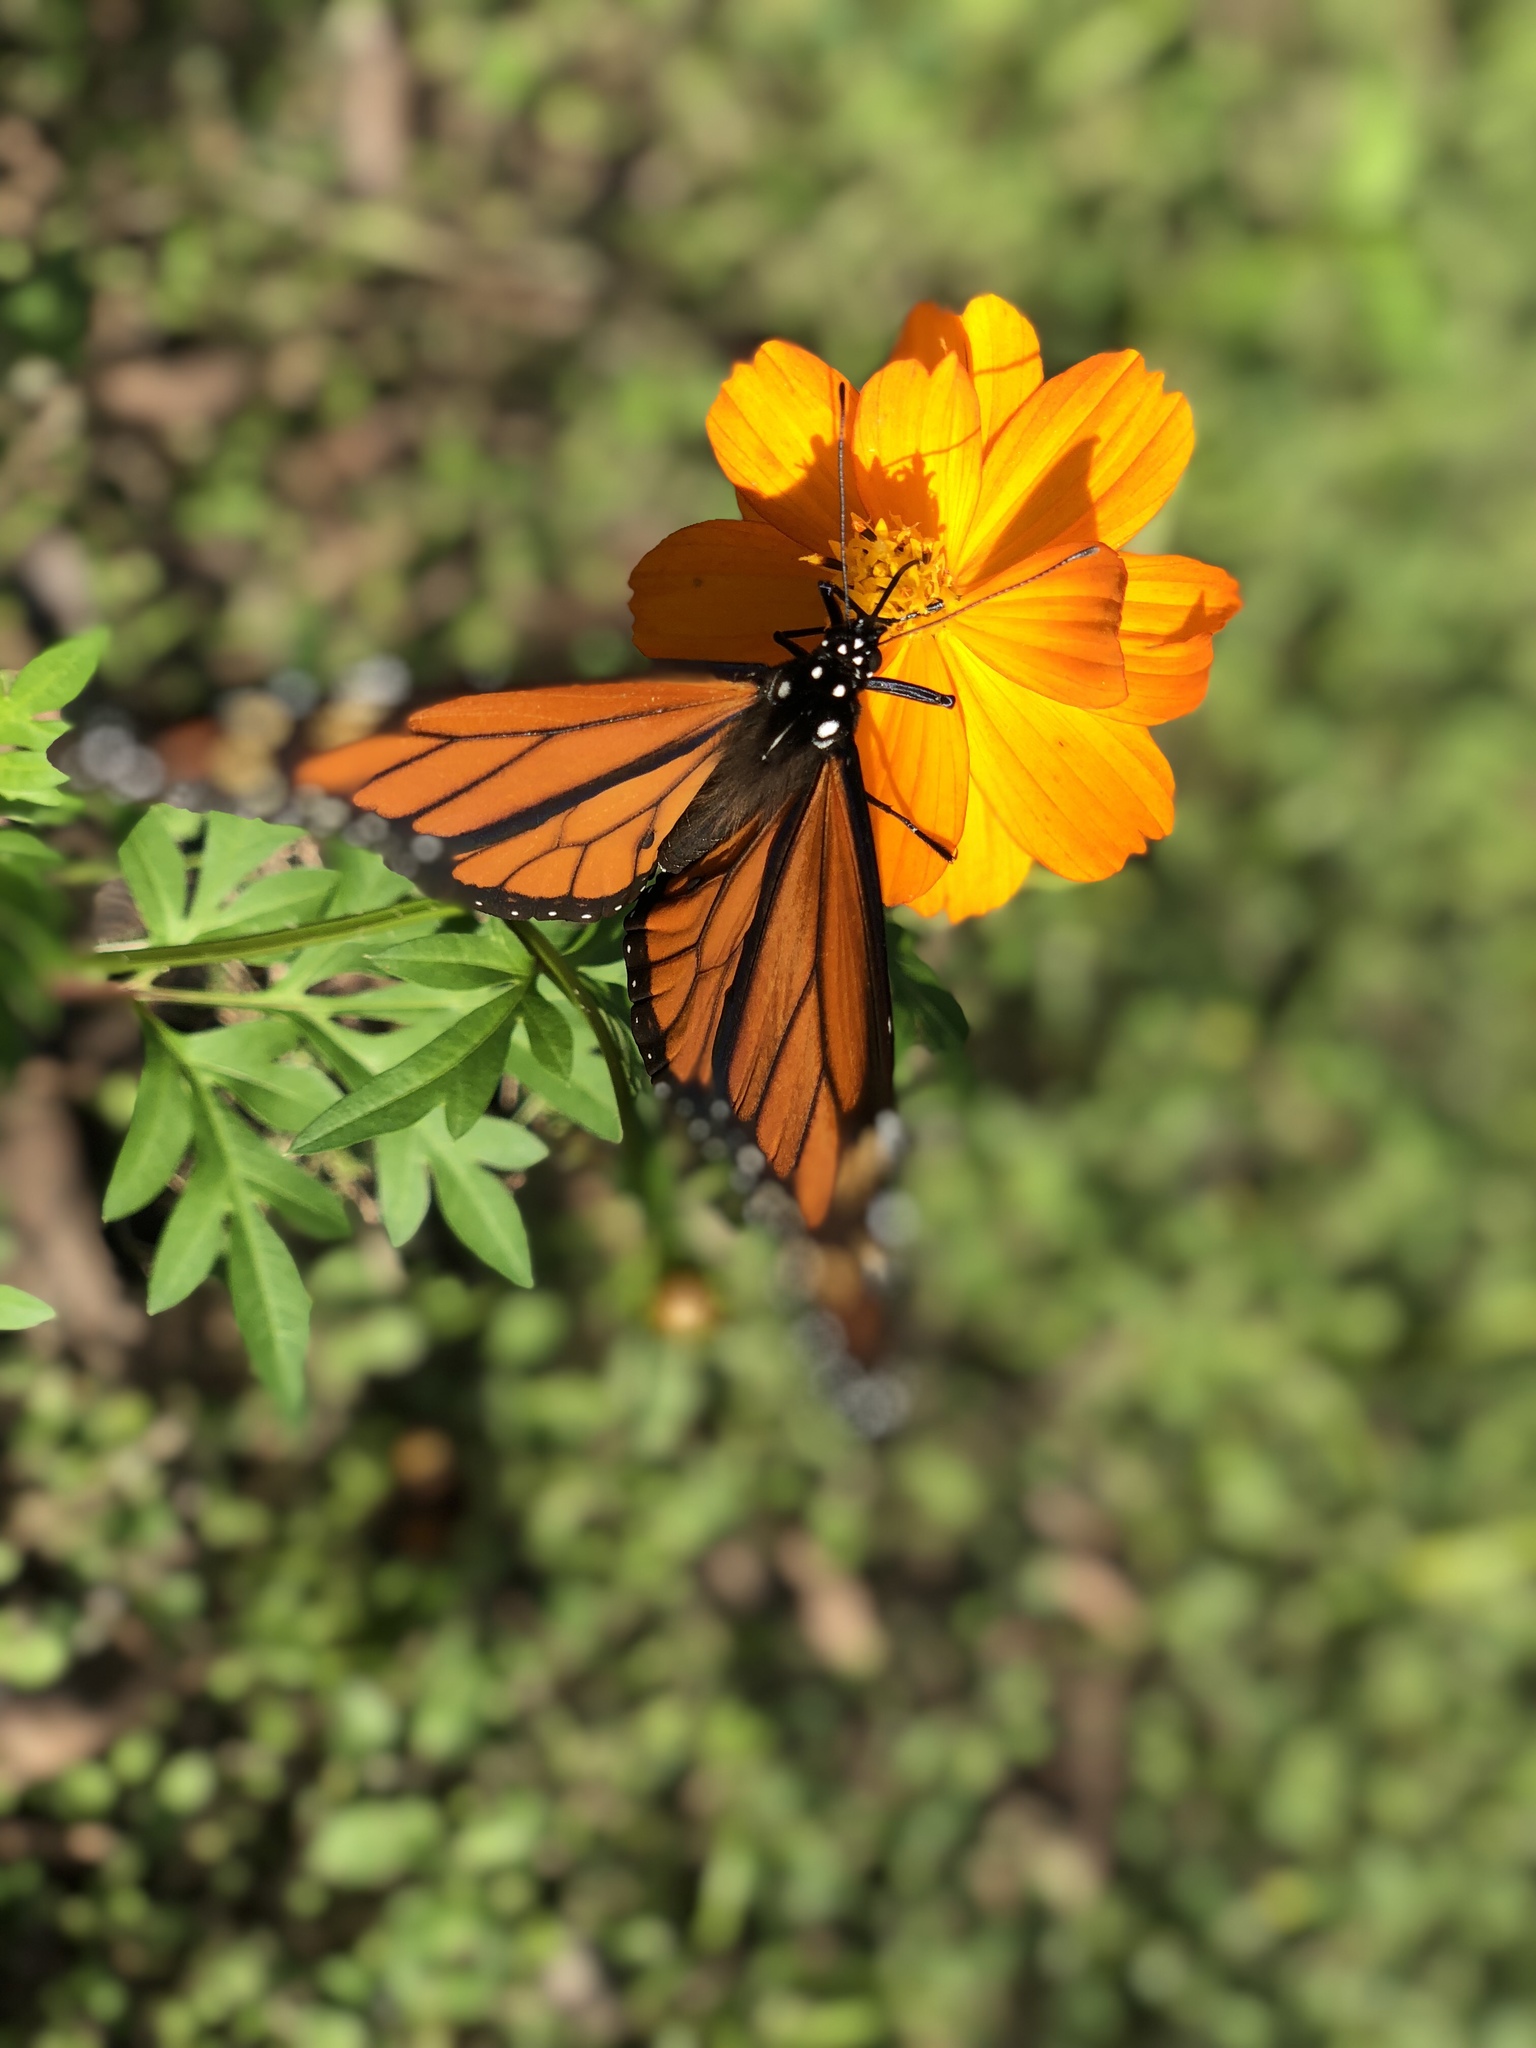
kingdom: Animalia
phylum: Arthropoda
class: Insecta
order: Lepidoptera
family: Nymphalidae
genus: Danaus
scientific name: Danaus plexippus
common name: Monarch
